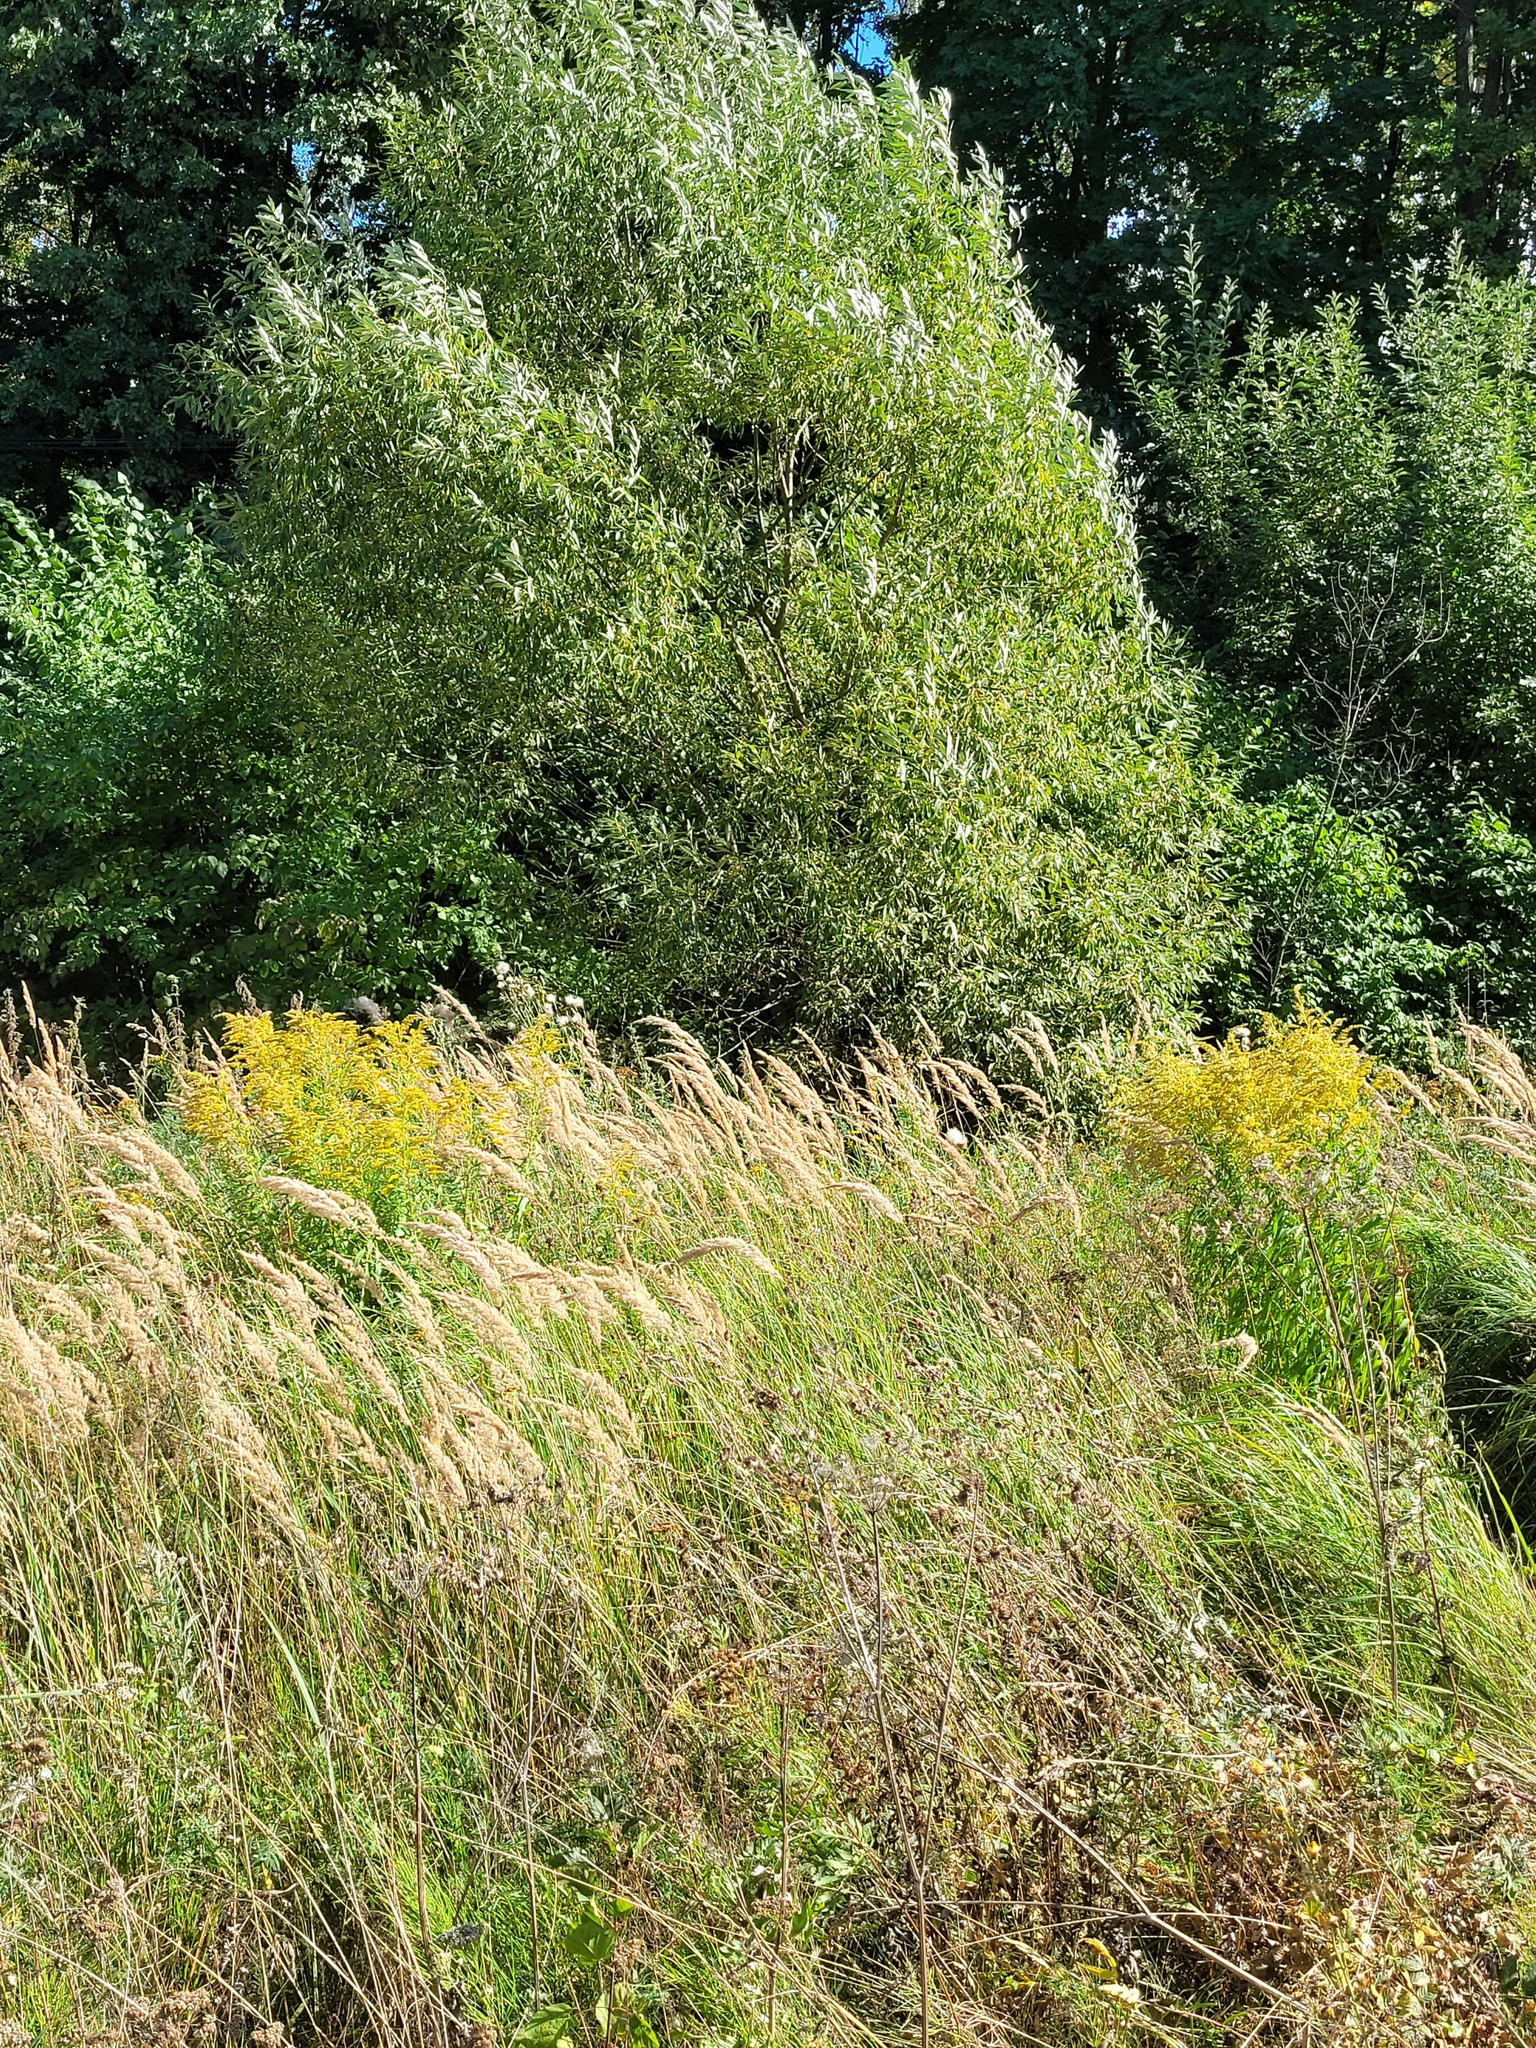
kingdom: Plantae
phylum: Tracheophyta
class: Magnoliopsida
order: Asterales
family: Asteraceae
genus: Solidago
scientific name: Solidago canadensis
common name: Canada goldenrod
